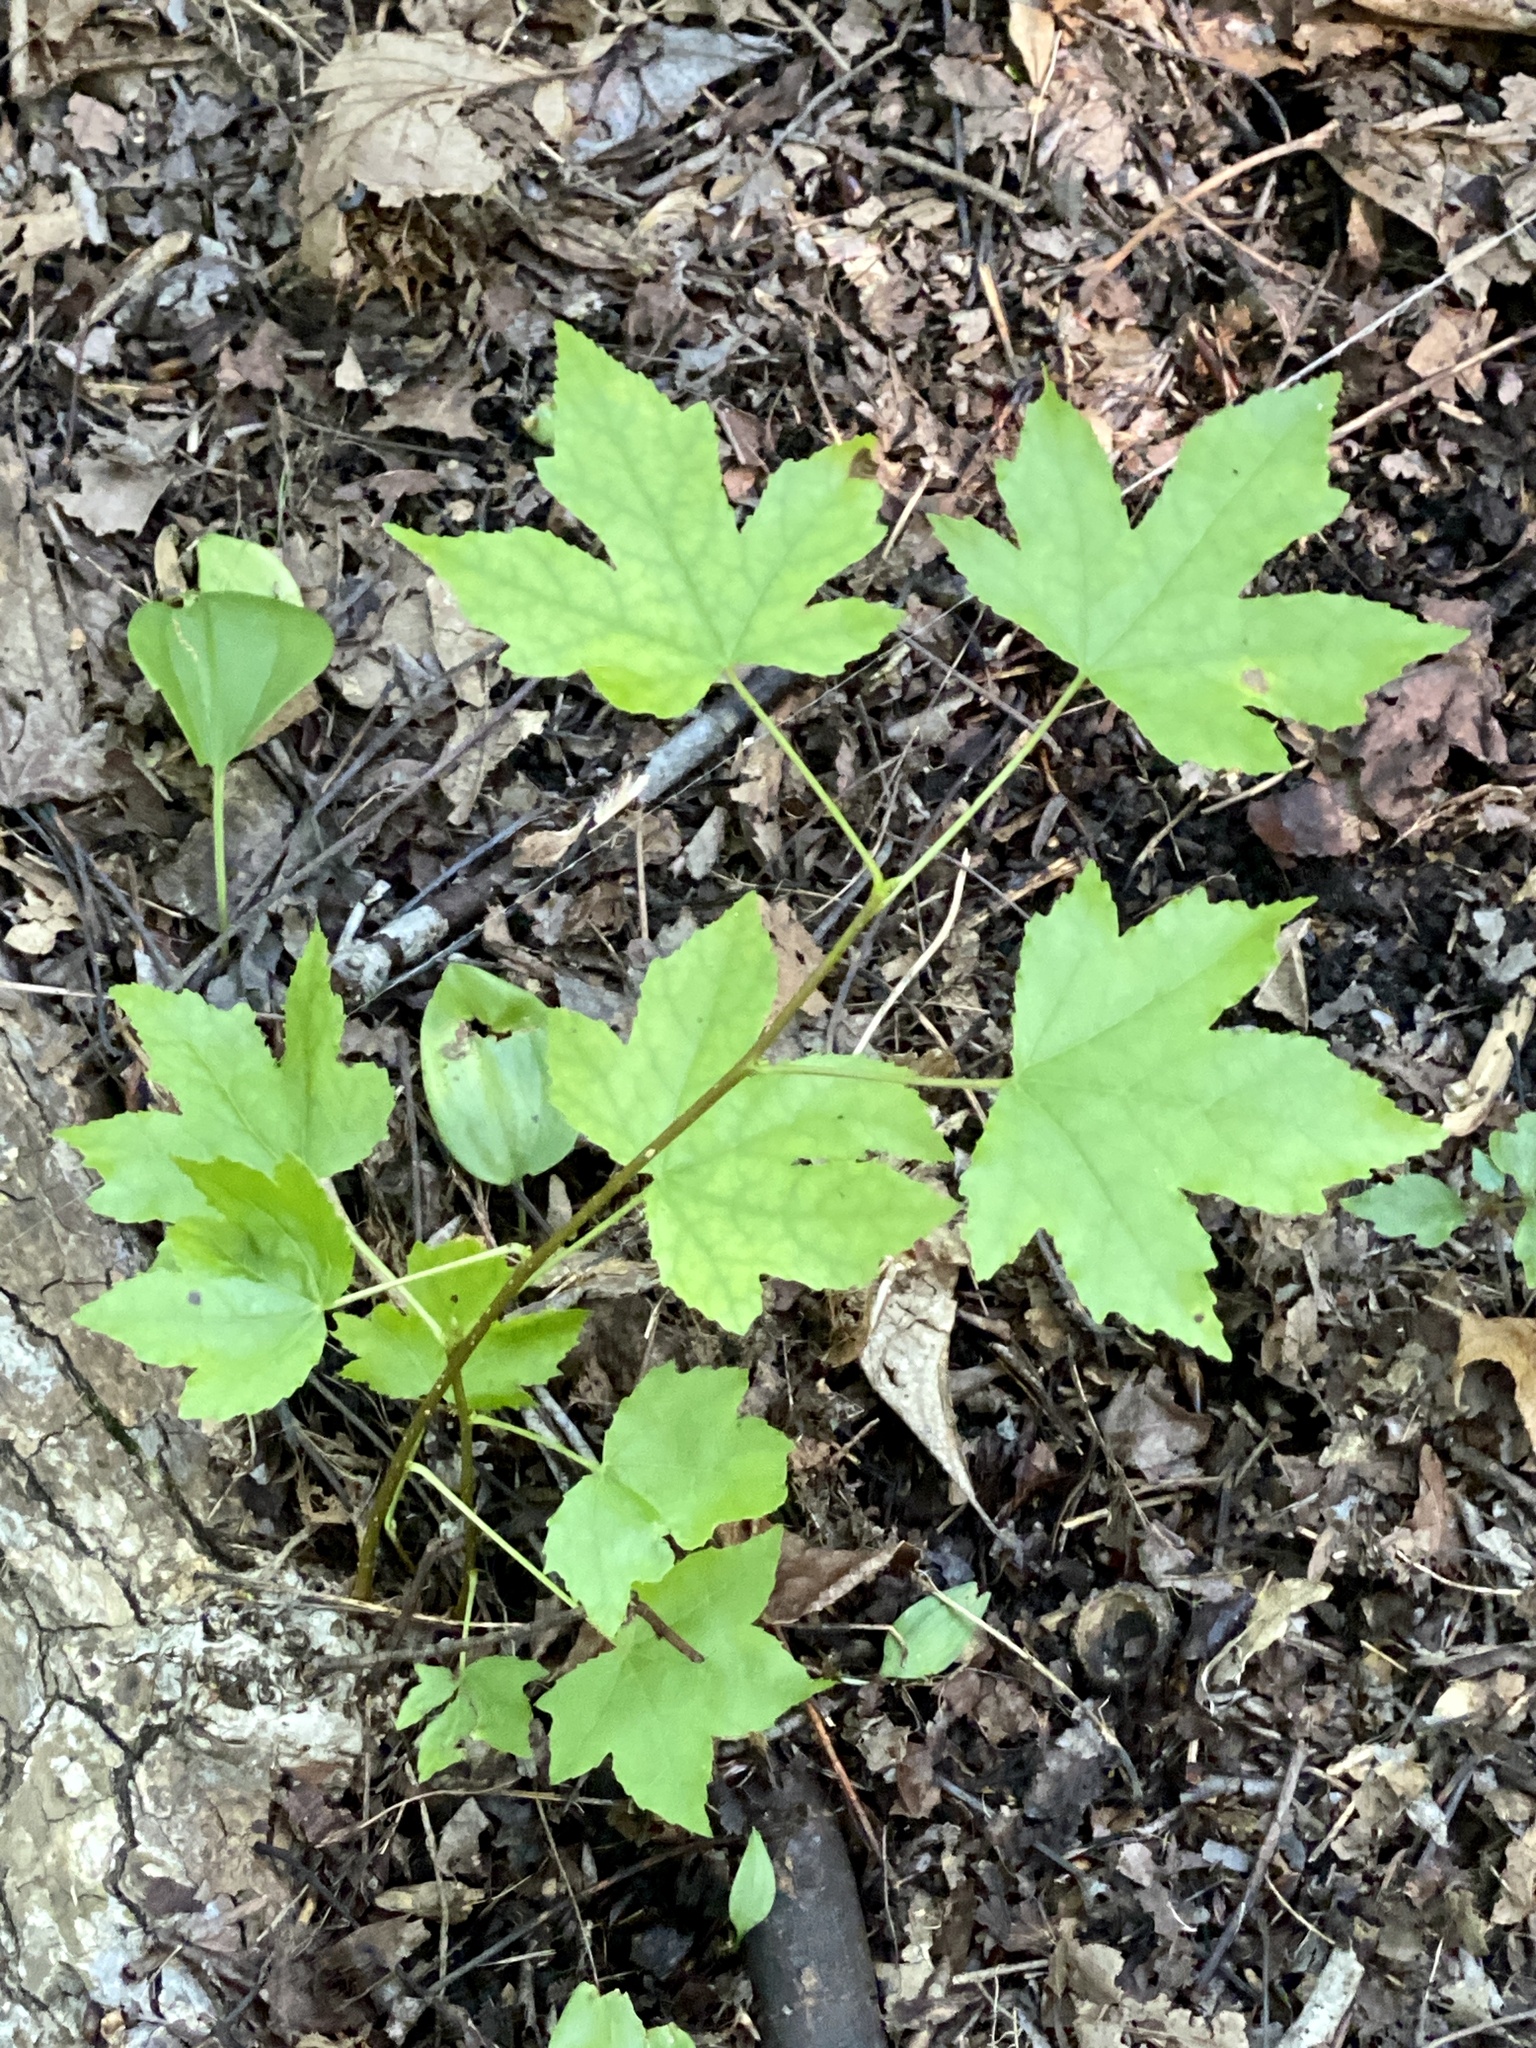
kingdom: Plantae
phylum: Tracheophyta
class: Magnoliopsida
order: Saxifragales
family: Altingiaceae
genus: Liquidambar
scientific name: Liquidambar styraciflua
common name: Sweet gum
